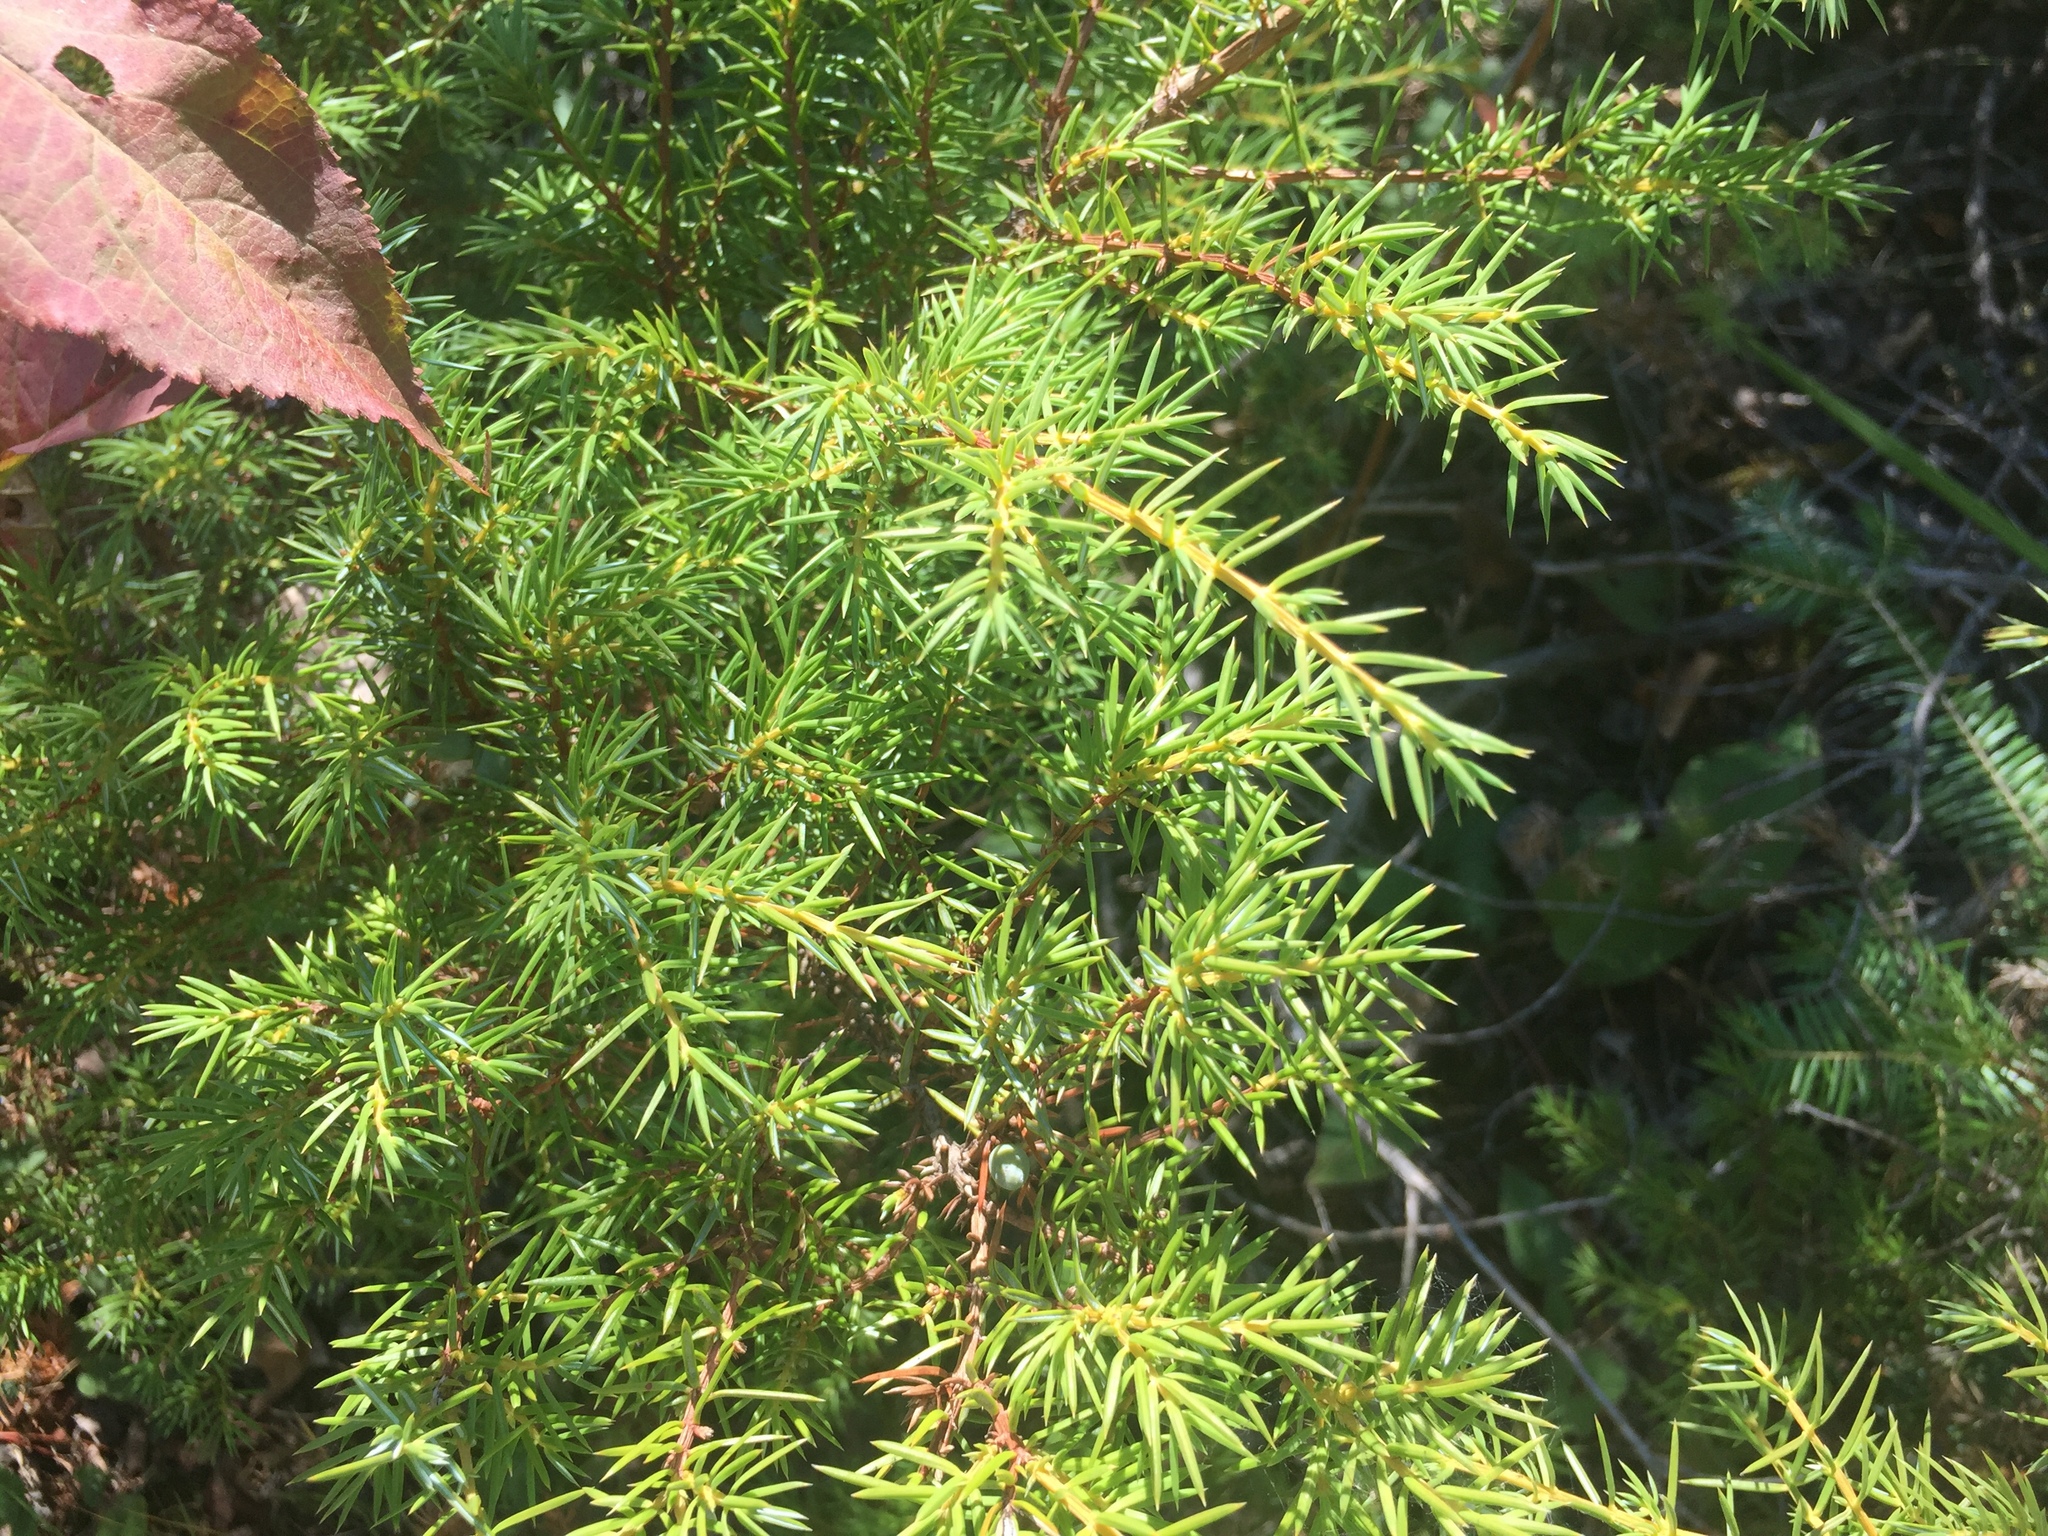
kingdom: Plantae
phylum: Tracheophyta
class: Pinopsida
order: Pinales
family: Cupressaceae
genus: Juniperus
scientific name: Juniperus communis
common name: Common juniper
